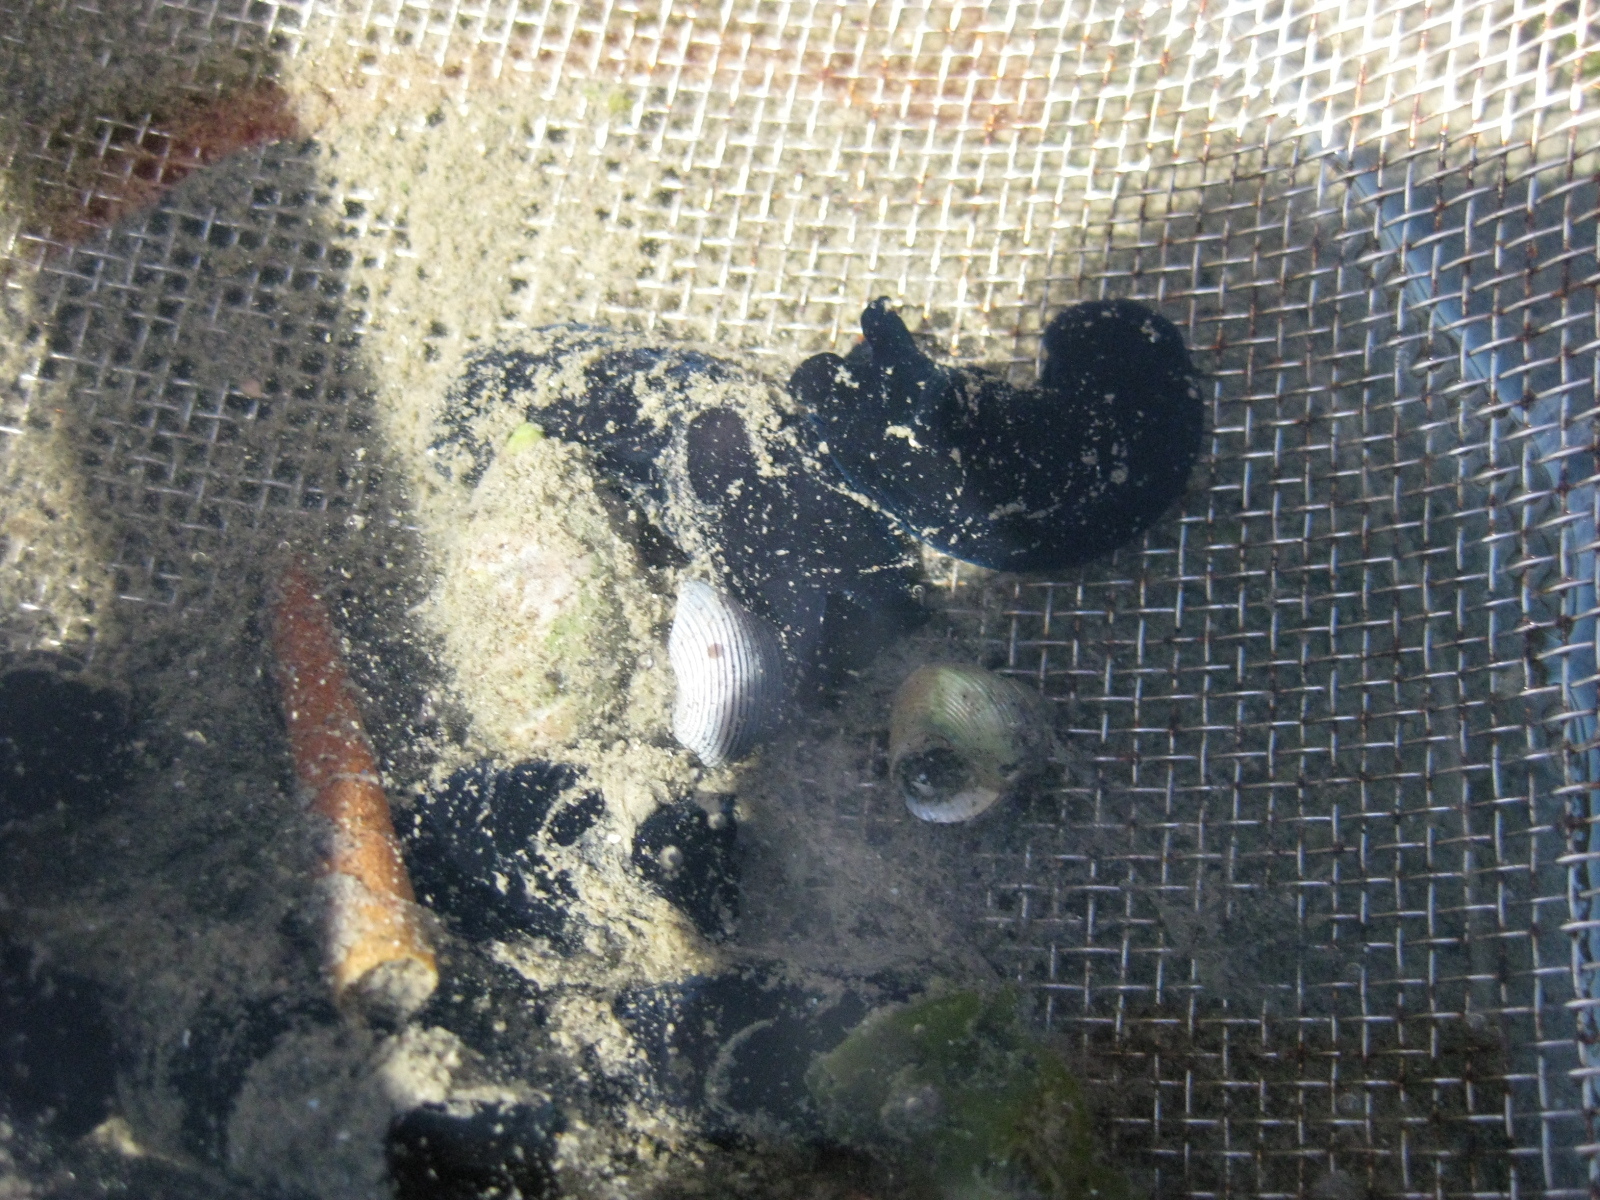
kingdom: Animalia
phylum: Annelida
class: Polychaeta
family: Pectinariidae
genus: Lagis
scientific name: Lagis australis
